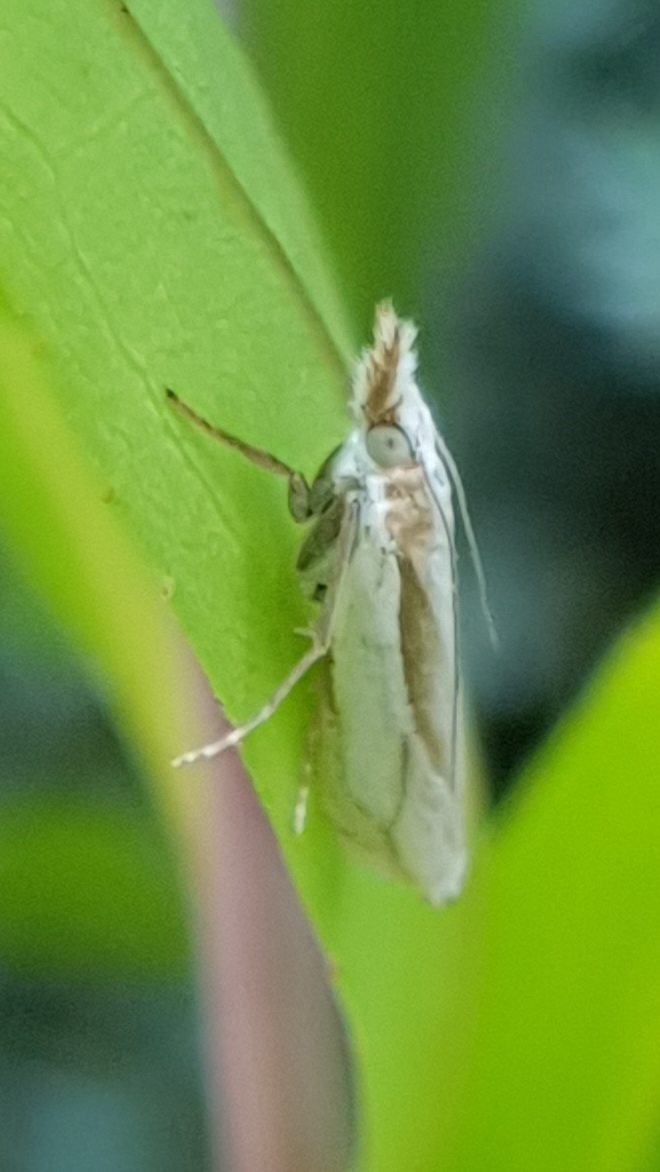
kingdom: Animalia
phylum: Arthropoda
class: Insecta
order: Lepidoptera
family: Crambidae
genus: Crambus
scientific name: Crambus pascuella
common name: Inlaid grass-veneer
